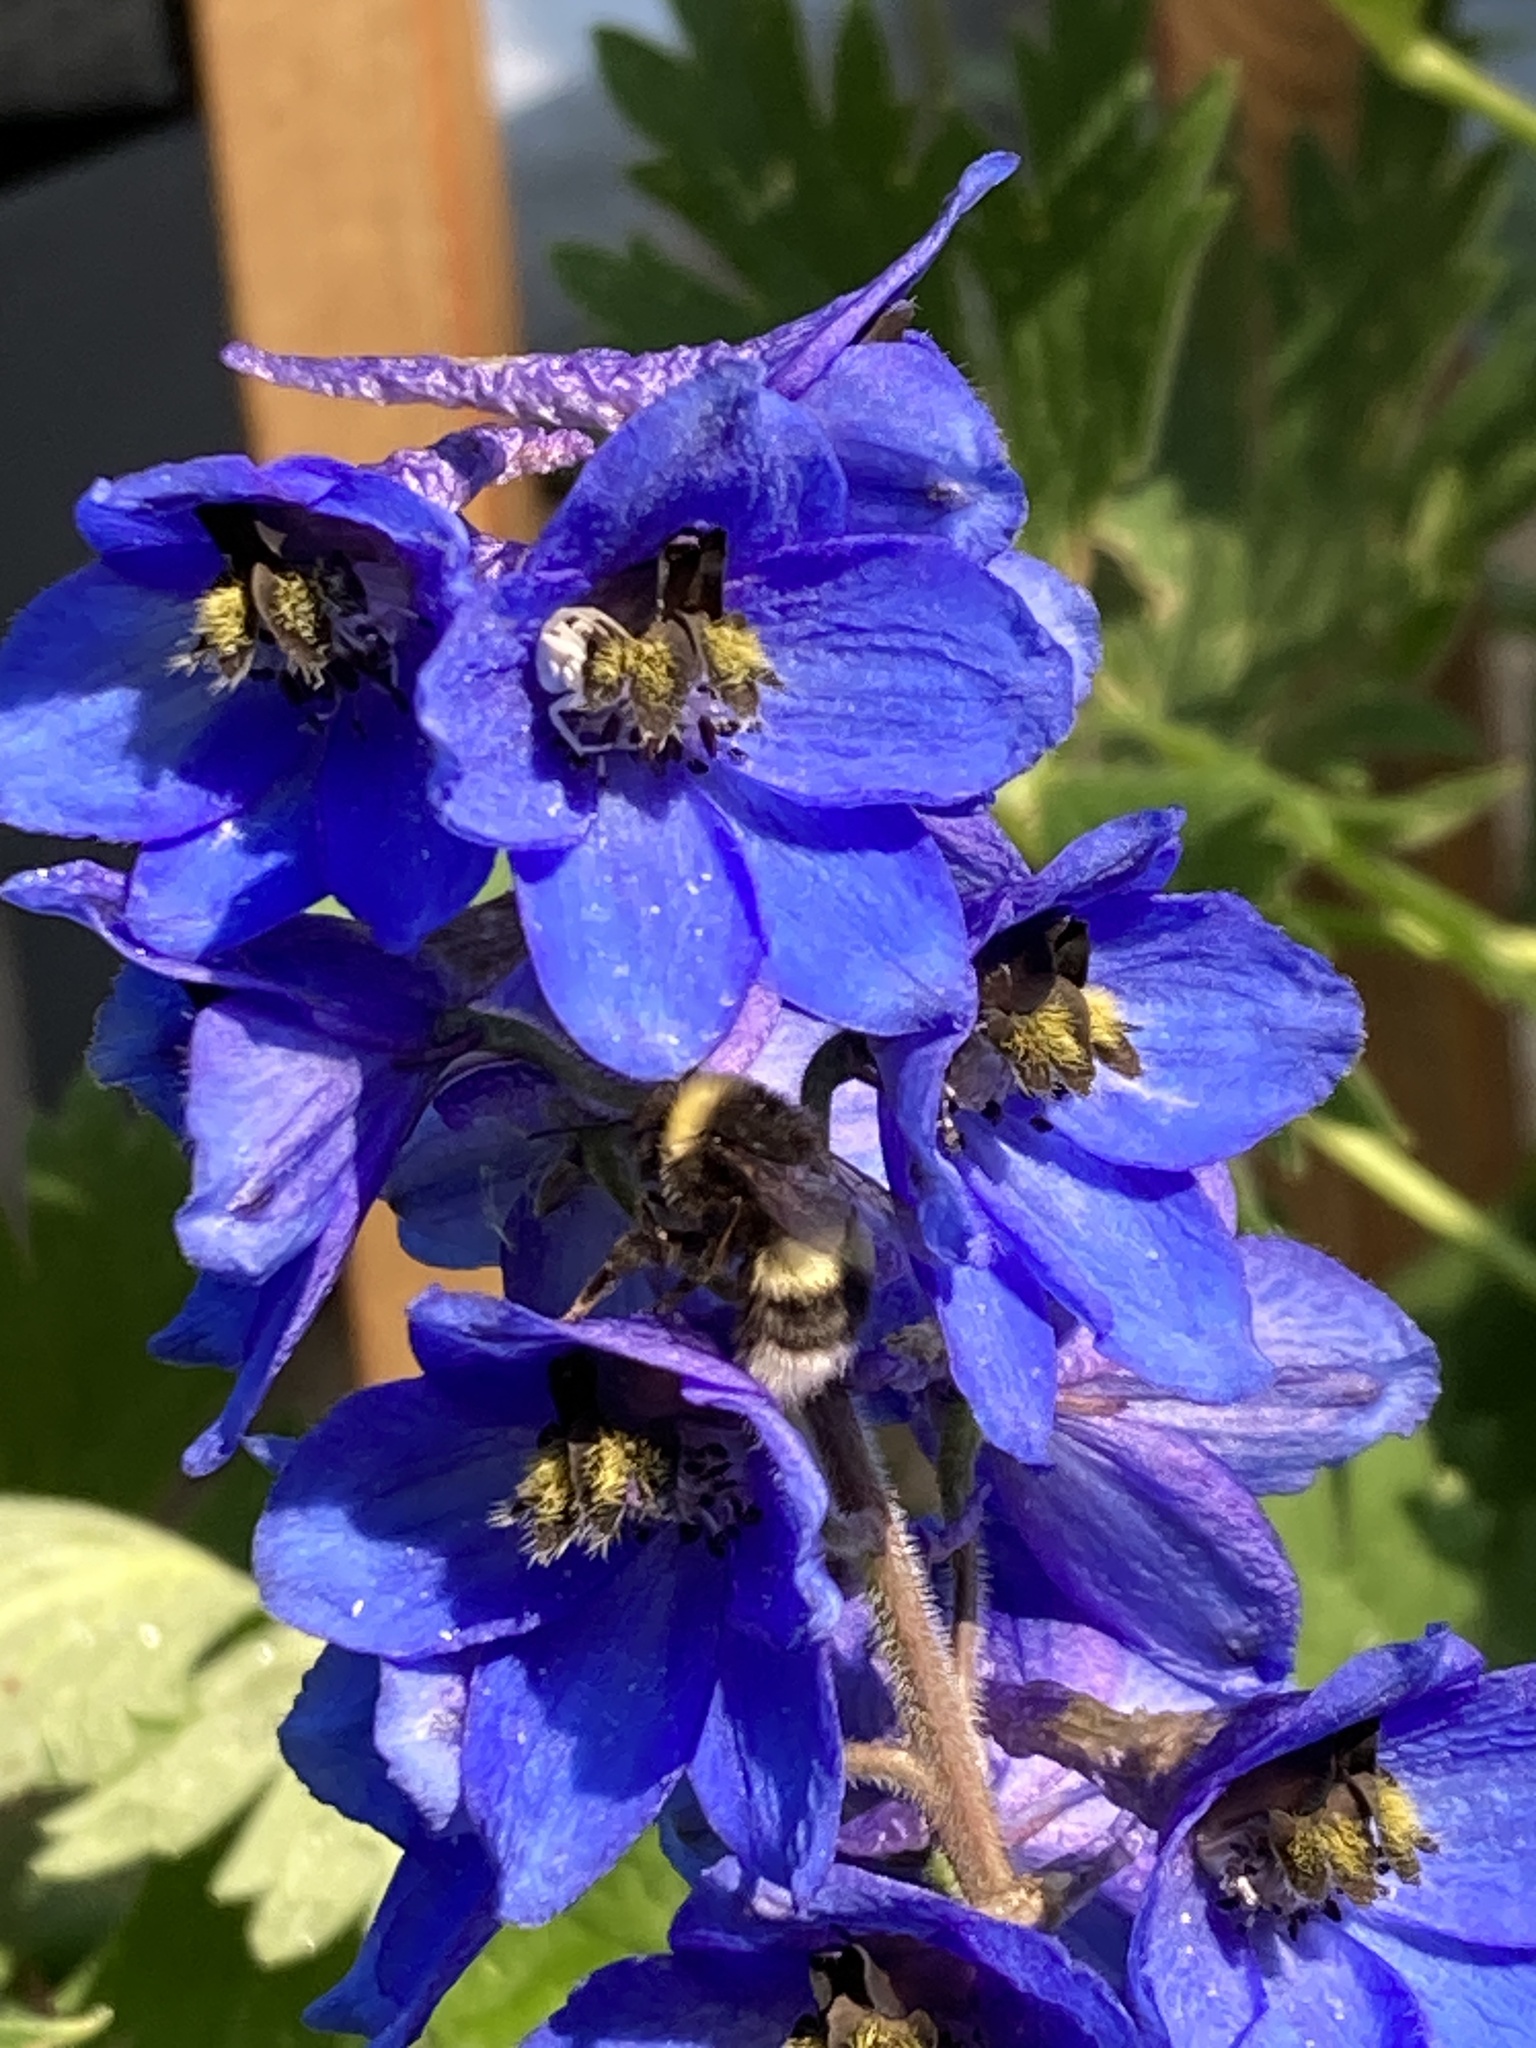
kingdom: Animalia
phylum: Arthropoda
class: Insecta
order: Hymenoptera
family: Apidae
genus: Bombus
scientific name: Bombus cryptarum
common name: Cryptic bumblebee
